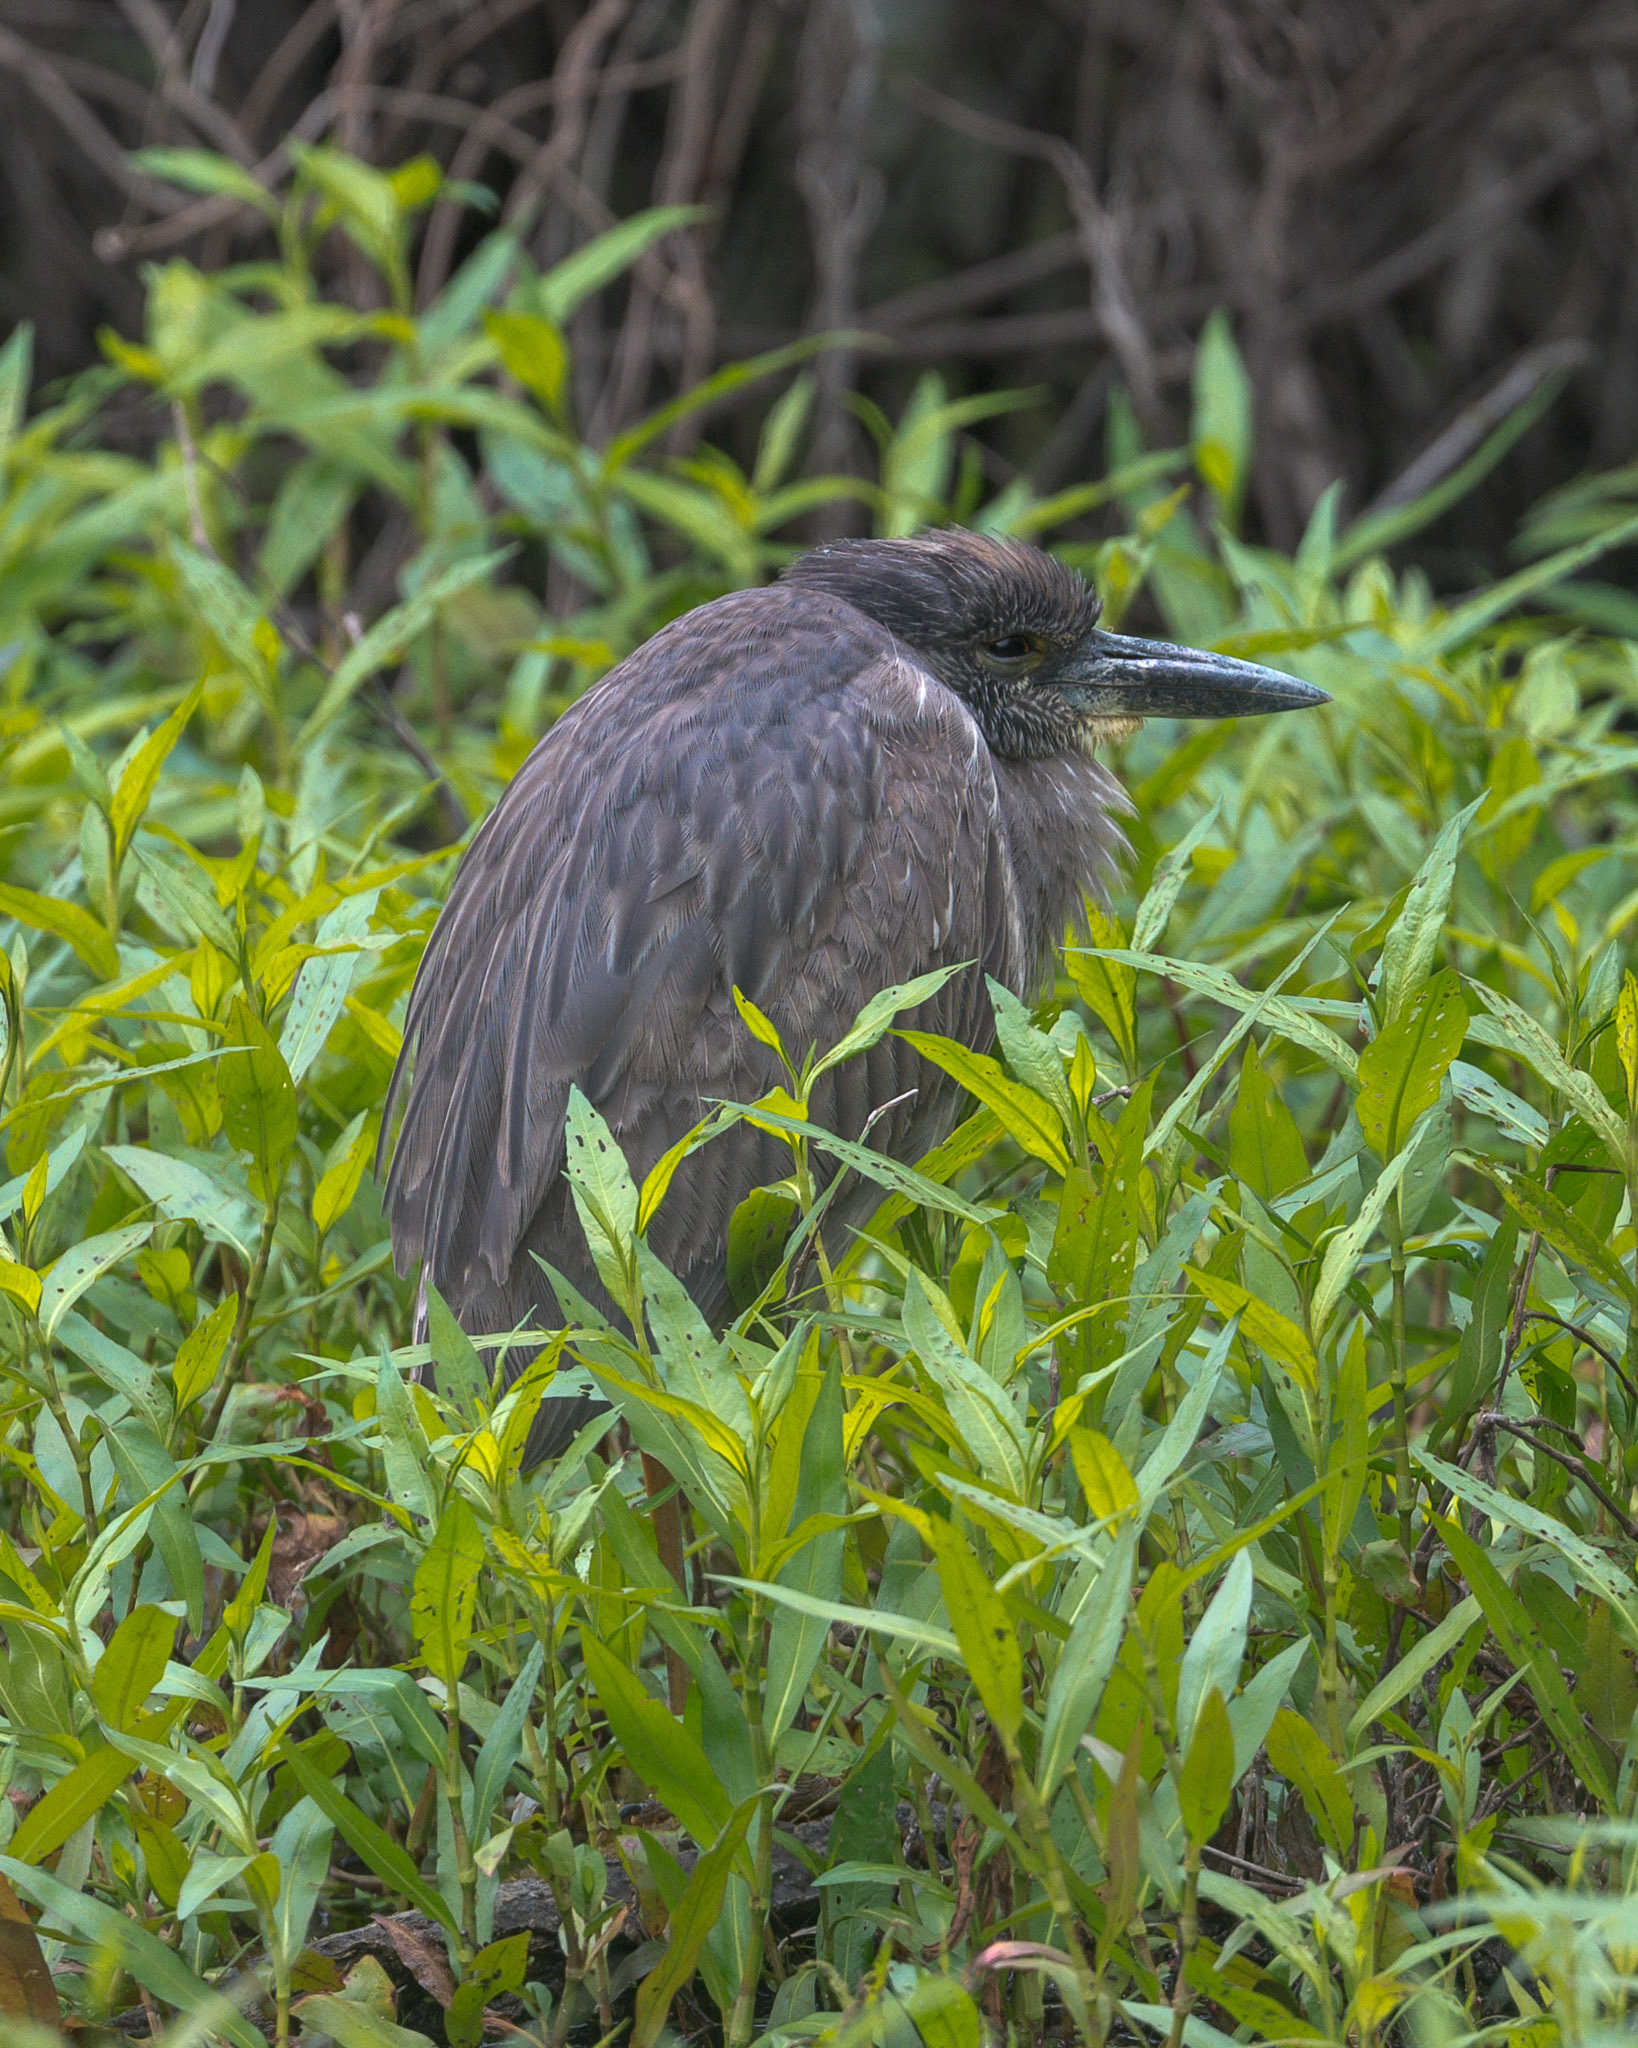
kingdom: Animalia
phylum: Chordata
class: Aves
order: Pelecaniformes
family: Ardeidae
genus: Nyctanassa
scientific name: Nyctanassa violacea
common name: Yellow-crowned night heron
